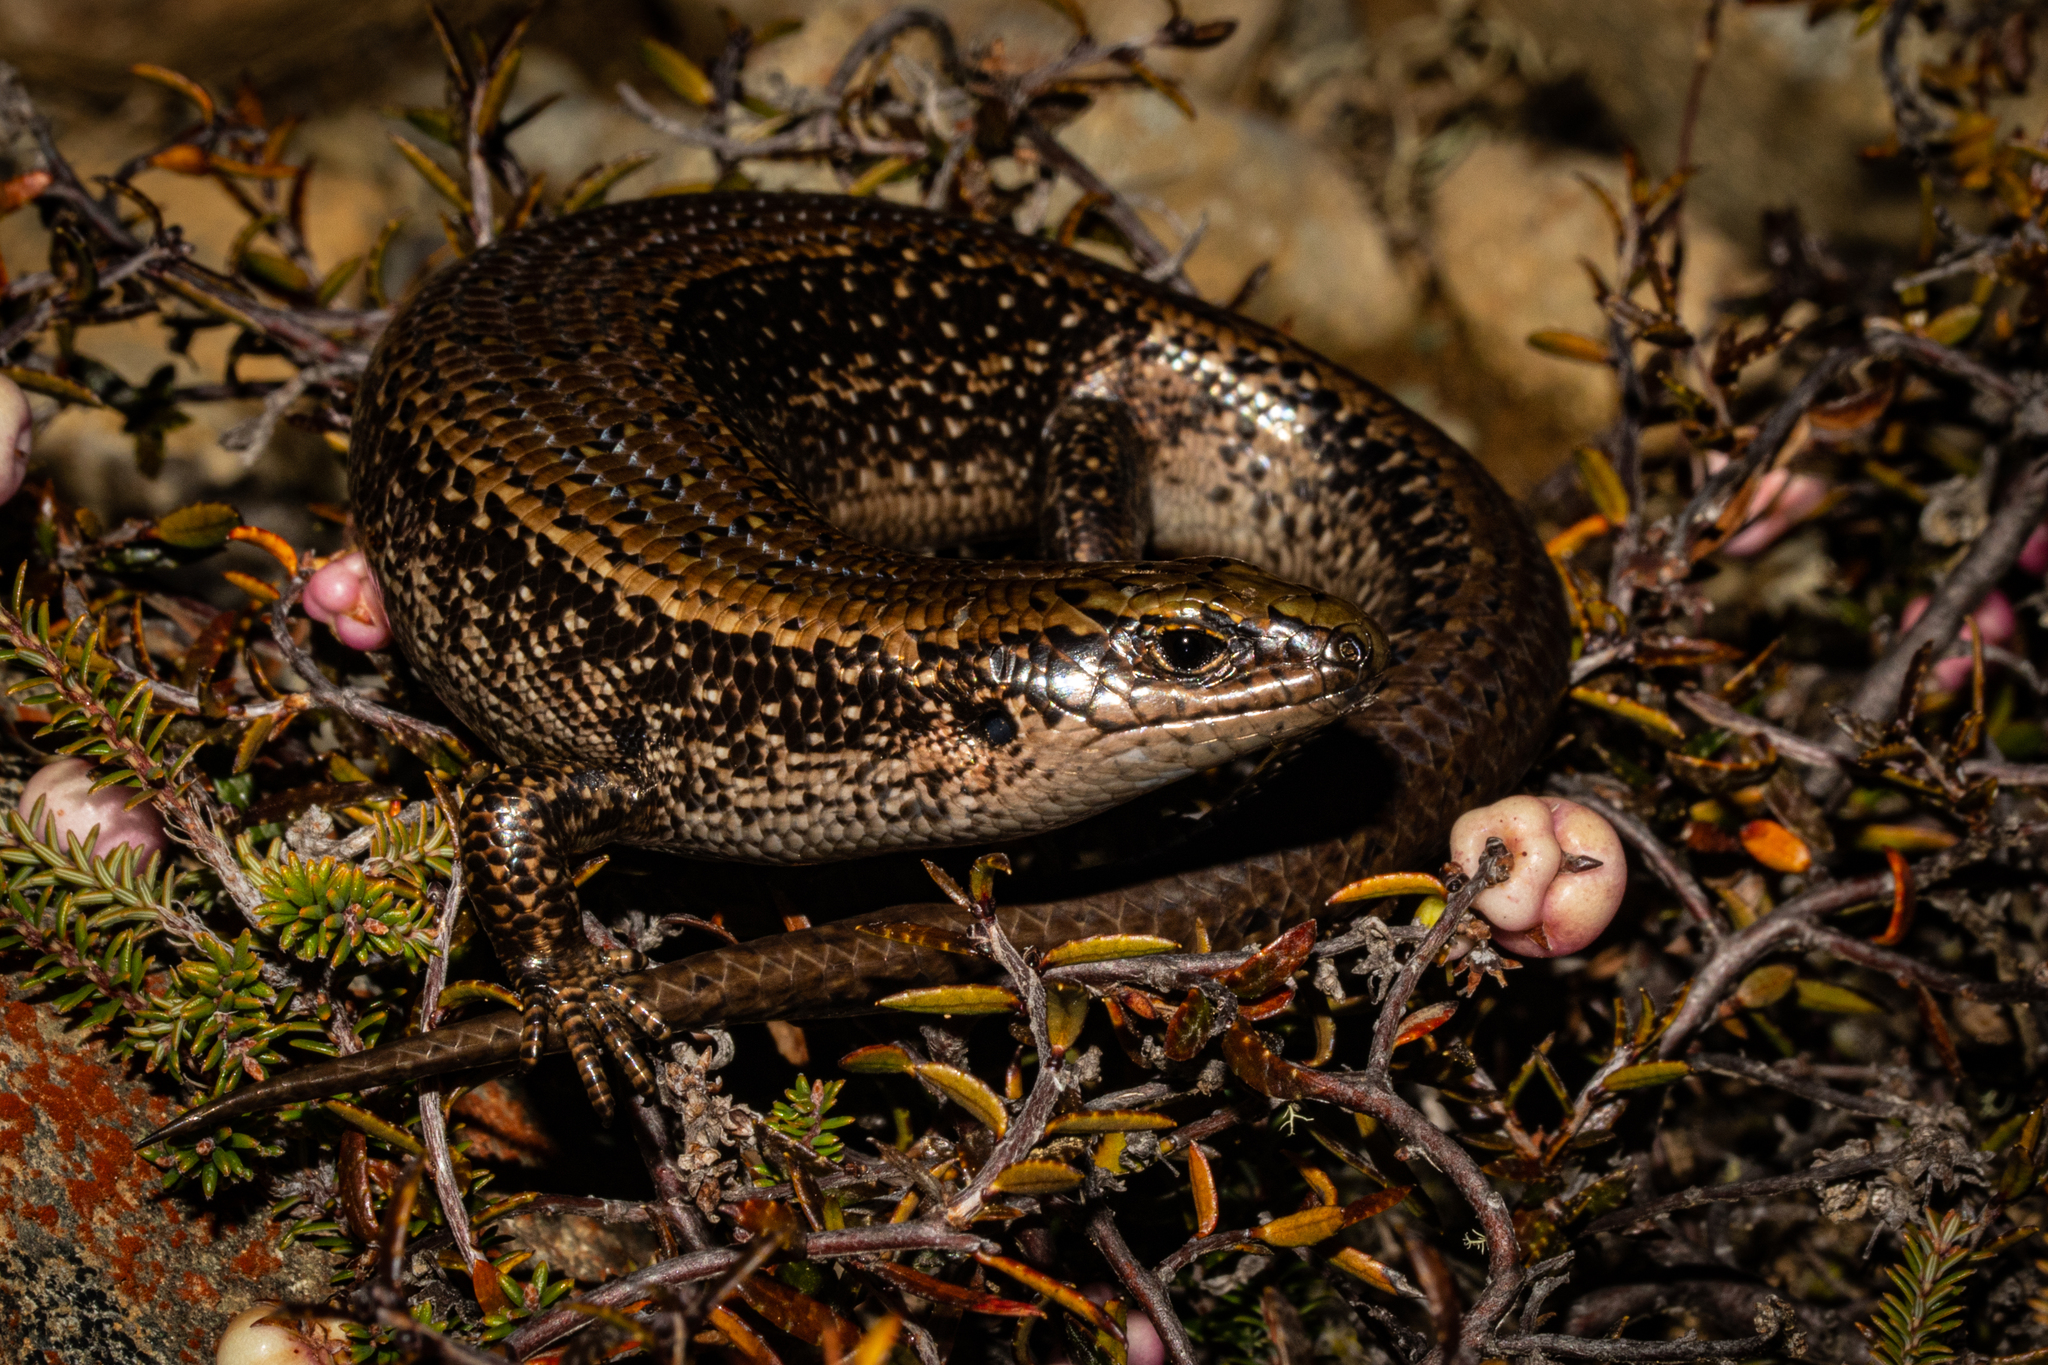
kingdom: Animalia
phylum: Chordata
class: Squamata
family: Scincidae
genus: Oligosoma
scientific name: Oligosoma chloronoton
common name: Green skink
